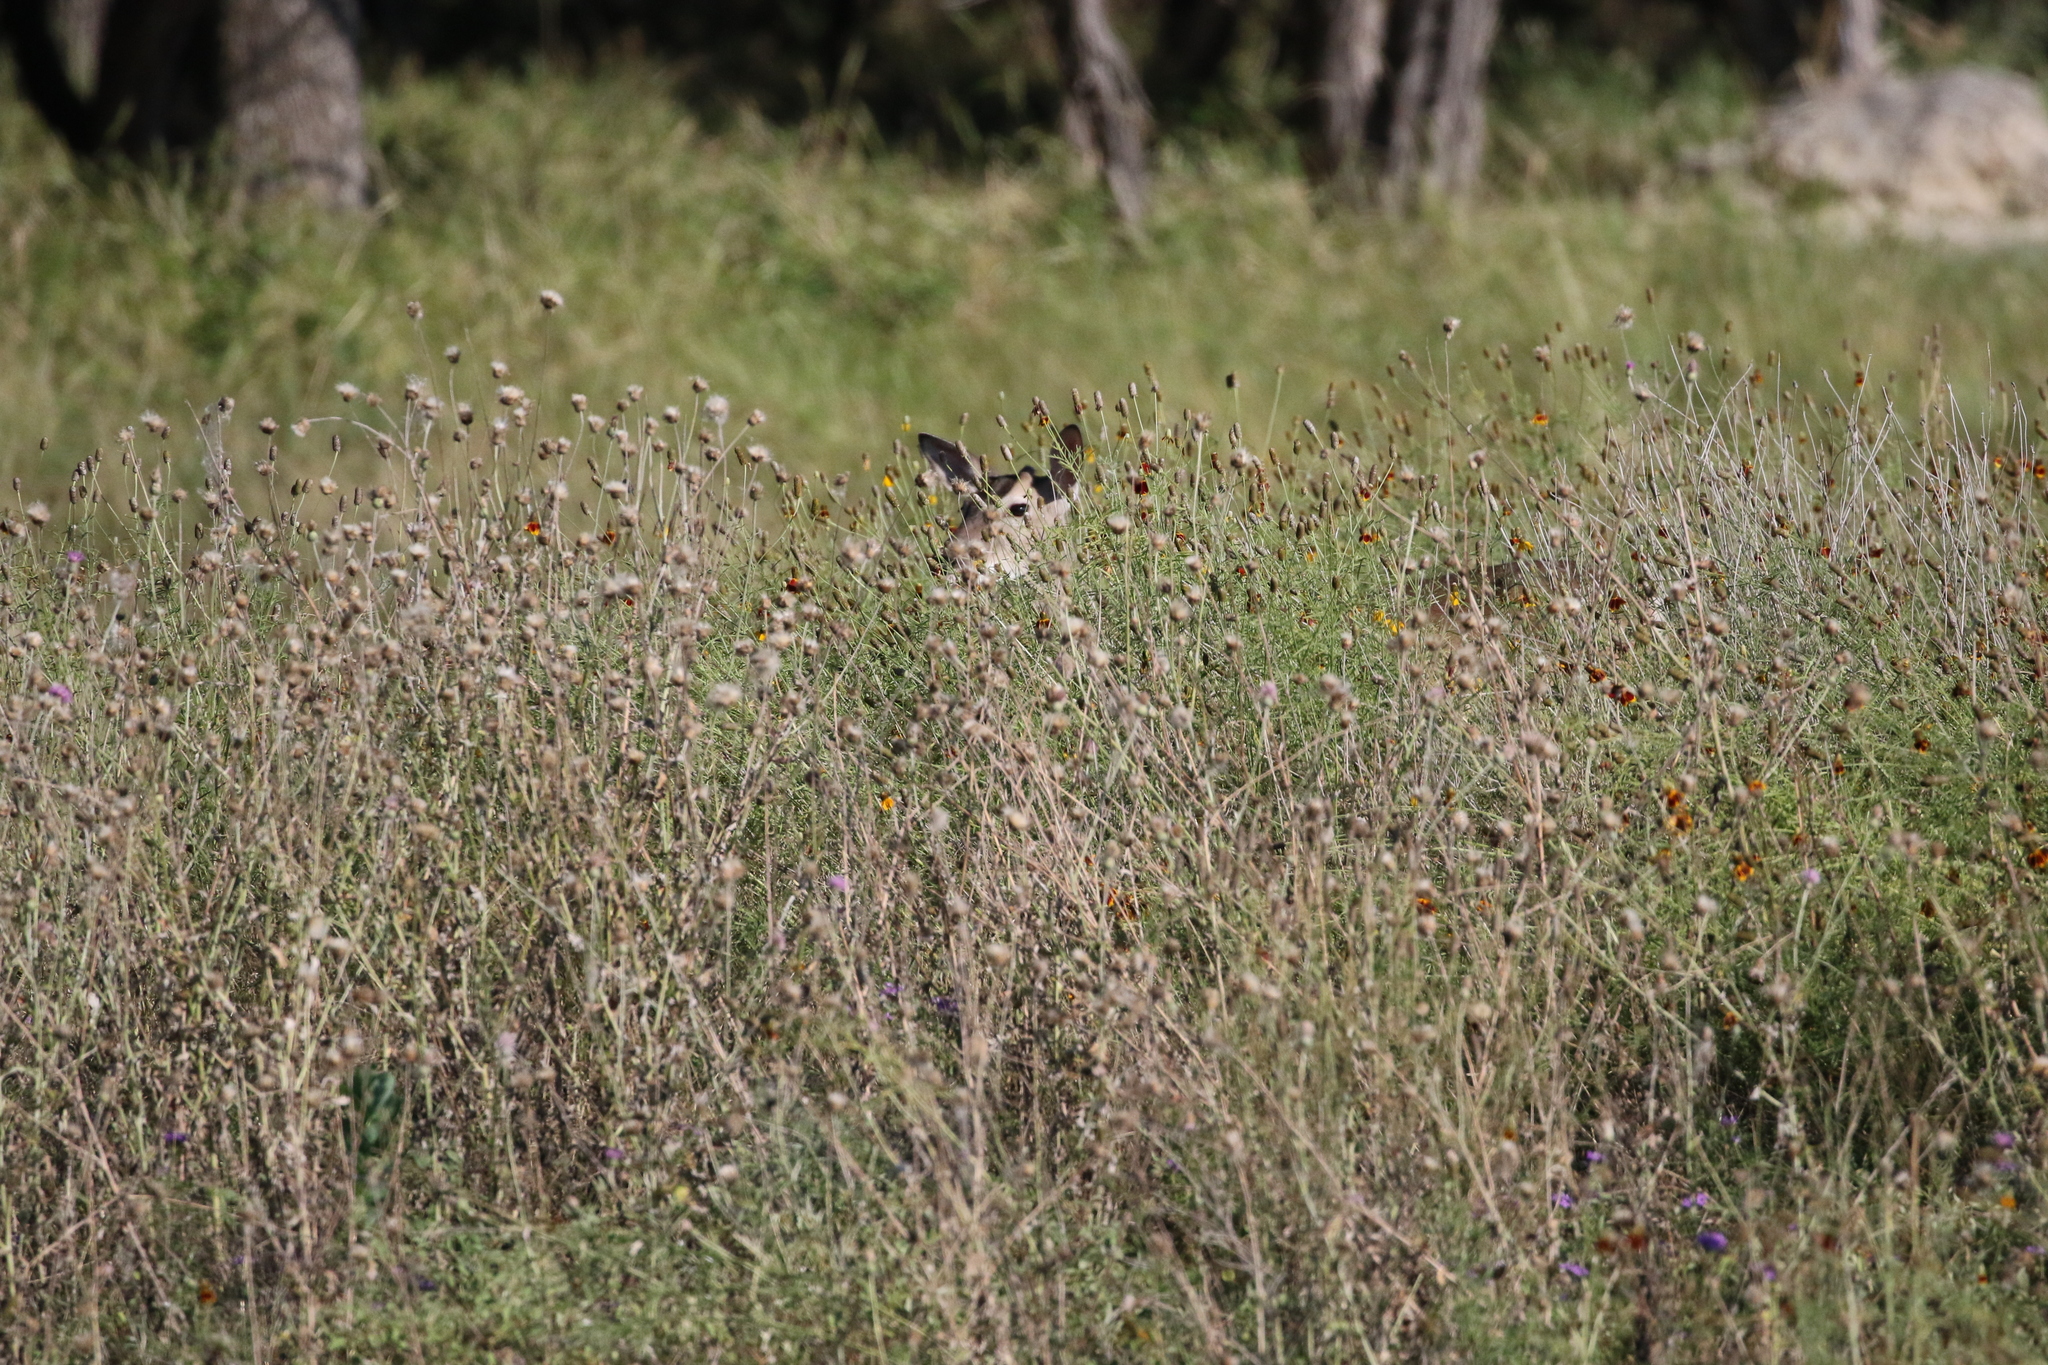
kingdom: Animalia
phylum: Chordata
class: Mammalia
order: Artiodactyla
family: Cervidae
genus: Odocoileus
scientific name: Odocoileus virginianus
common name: White-tailed deer
